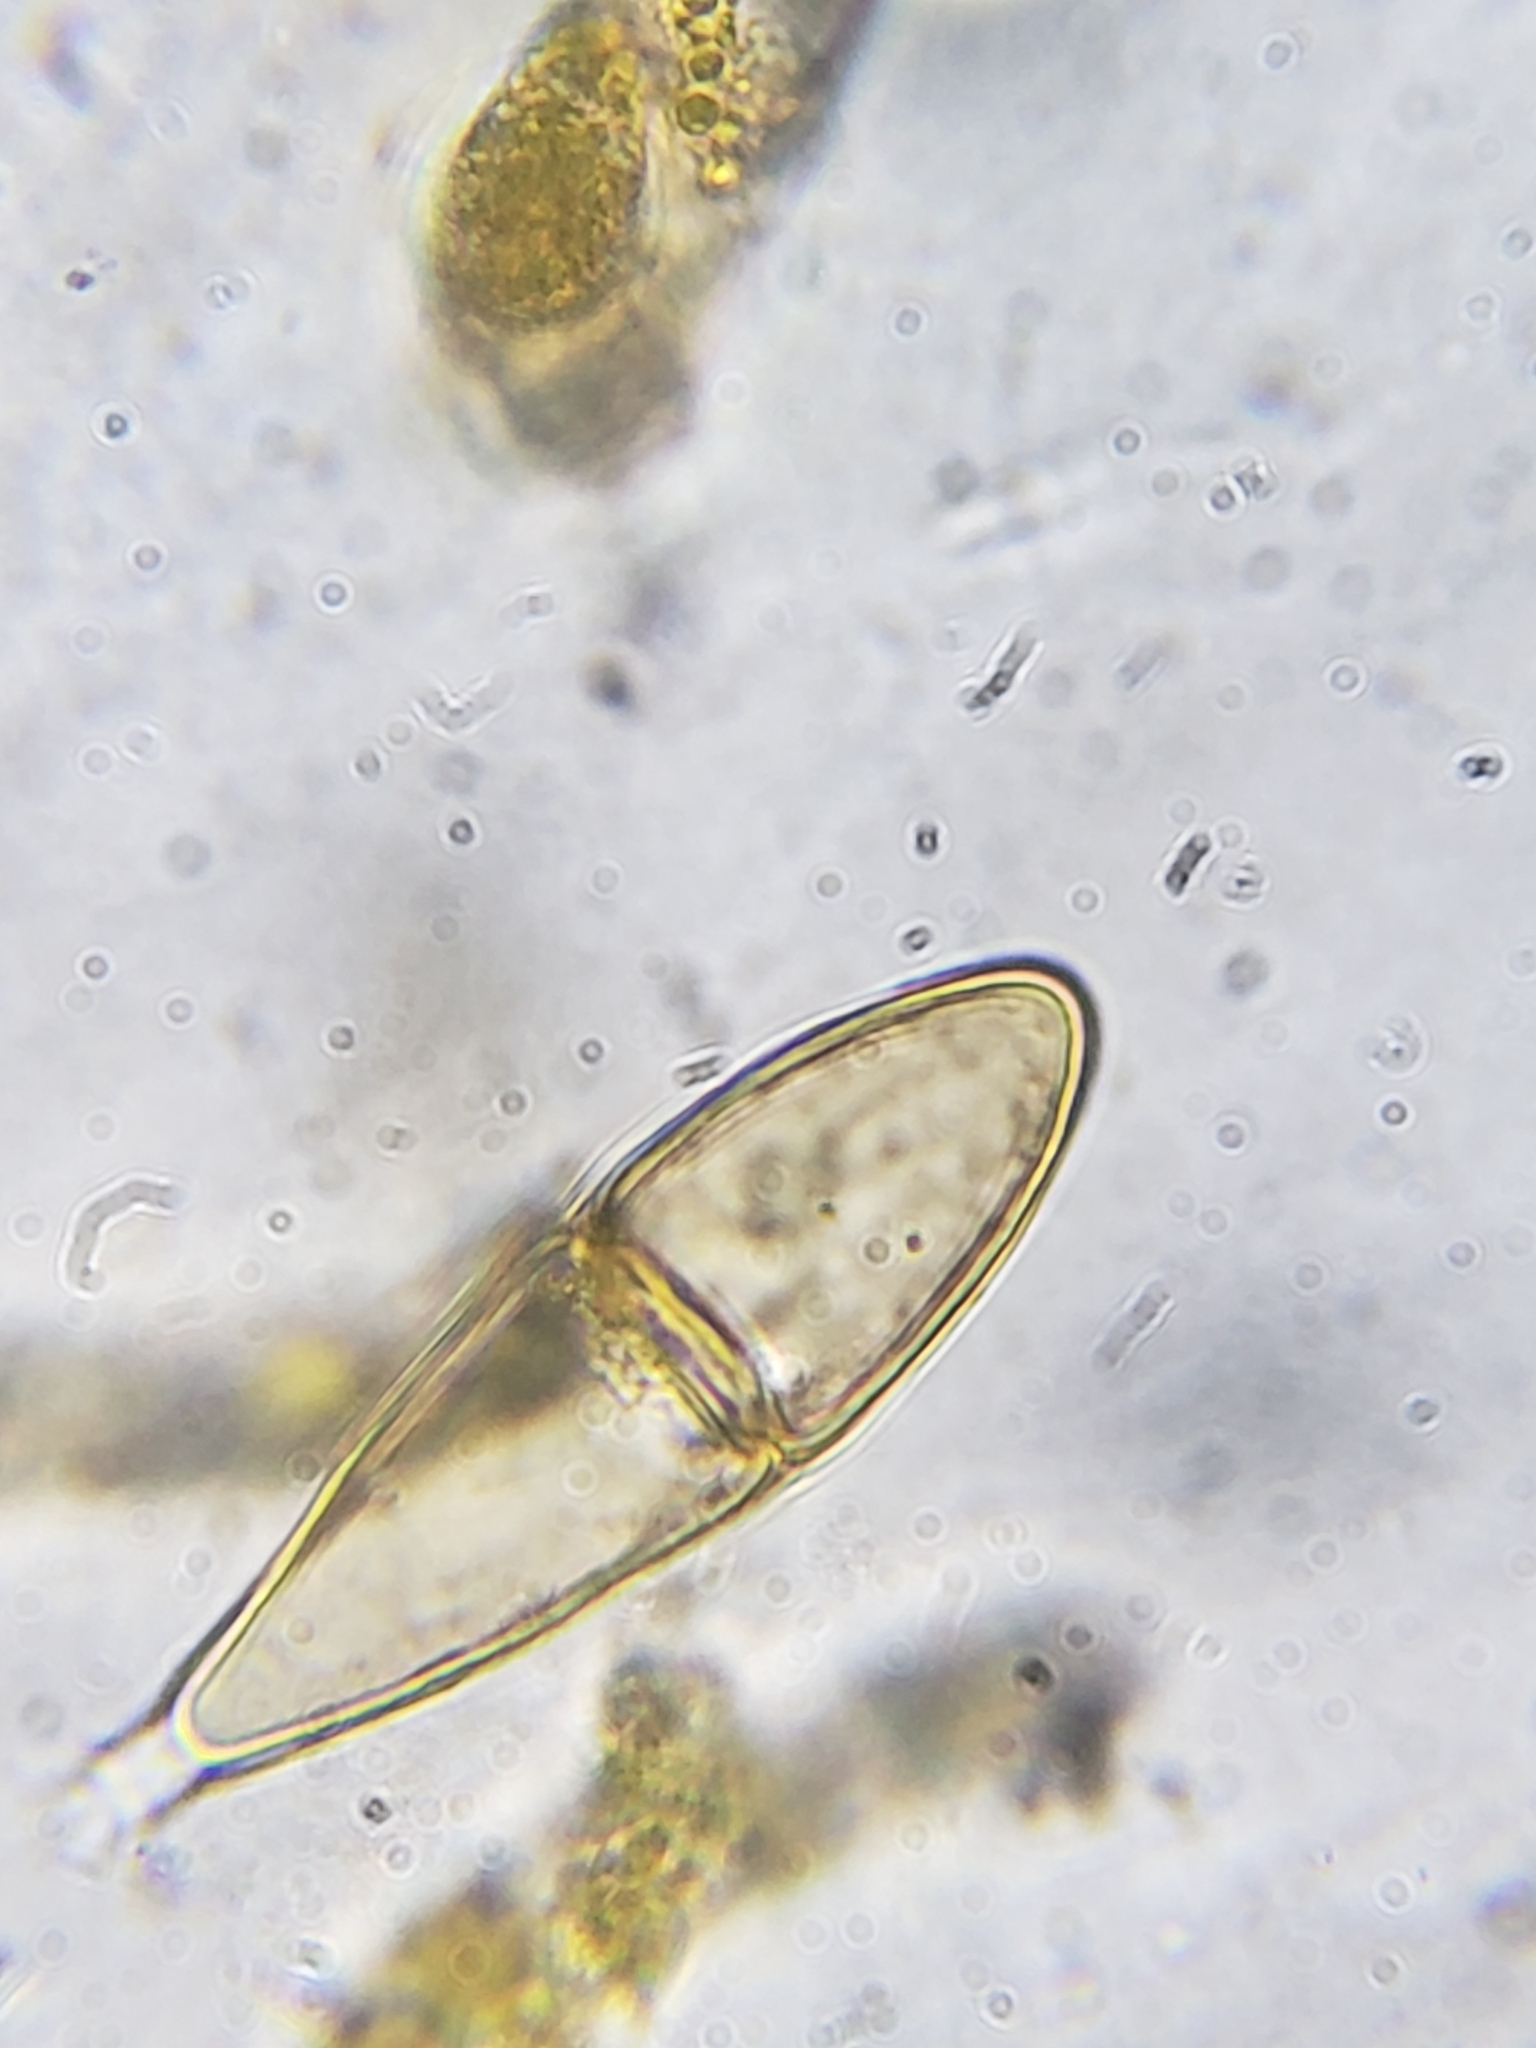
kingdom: Fungi
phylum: Basidiomycota
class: Pucciniomycetes
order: Pucciniales
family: Gymnosporangiaceae
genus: Gymnosporangium
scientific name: Gymnosporangium juniperi-virginianae
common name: Juniper-apple rust
